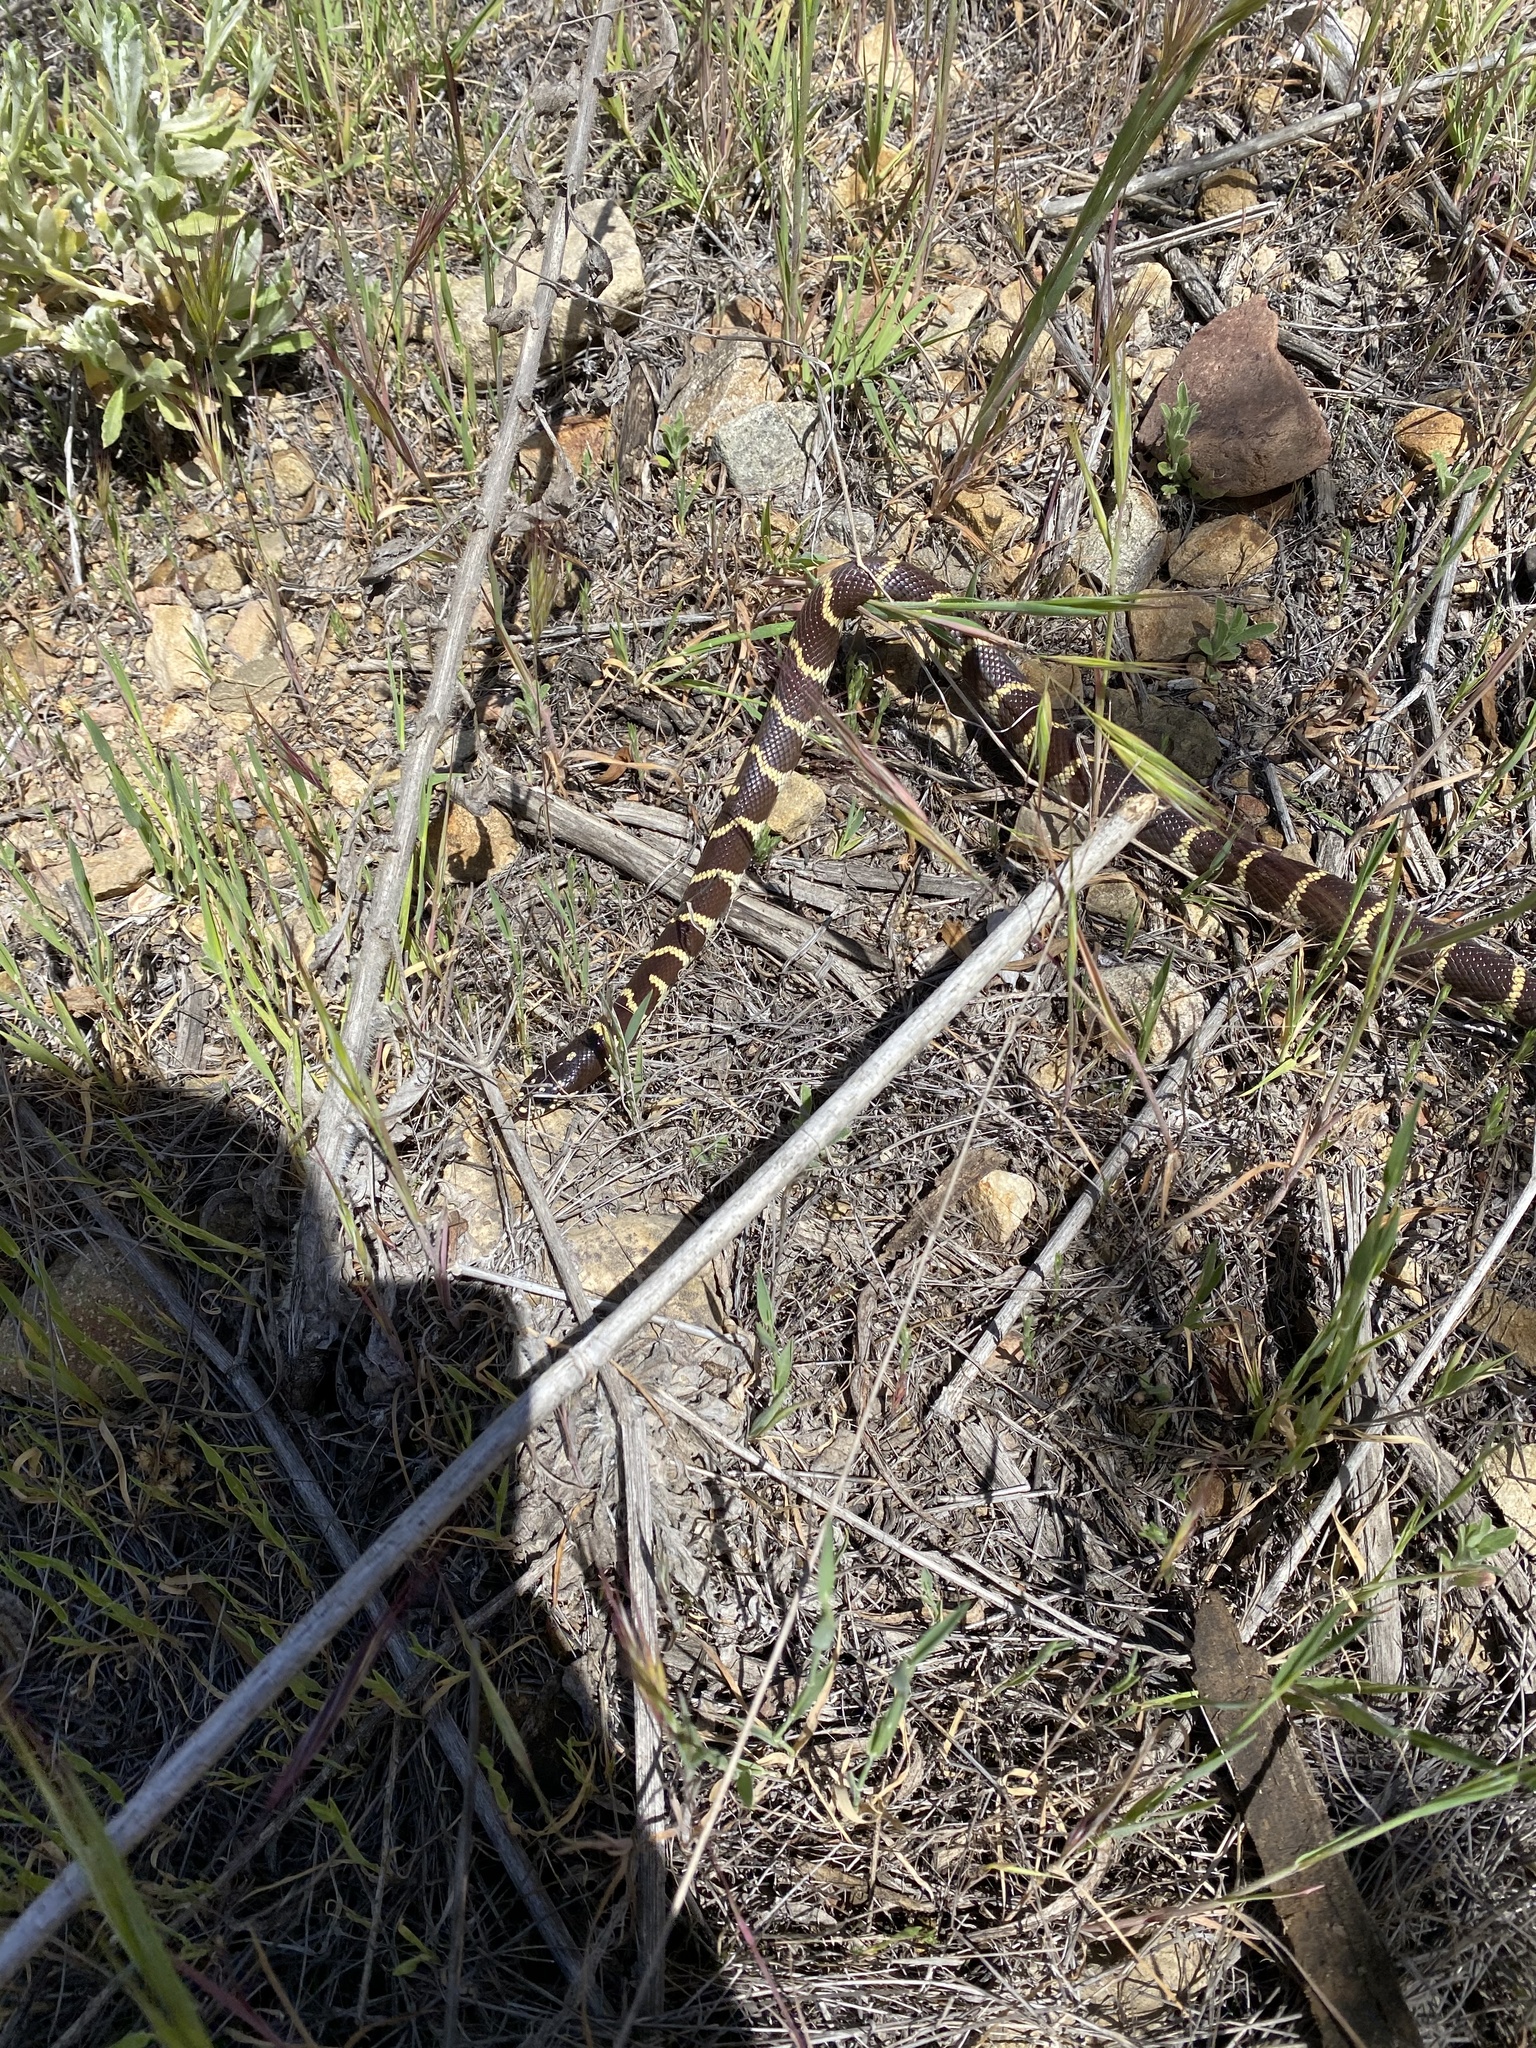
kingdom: Animalia
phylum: Chordata
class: Squamata
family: Colubridae
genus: Lampropeltis
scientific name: Lampropeltis californiae
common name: California kingsnake
